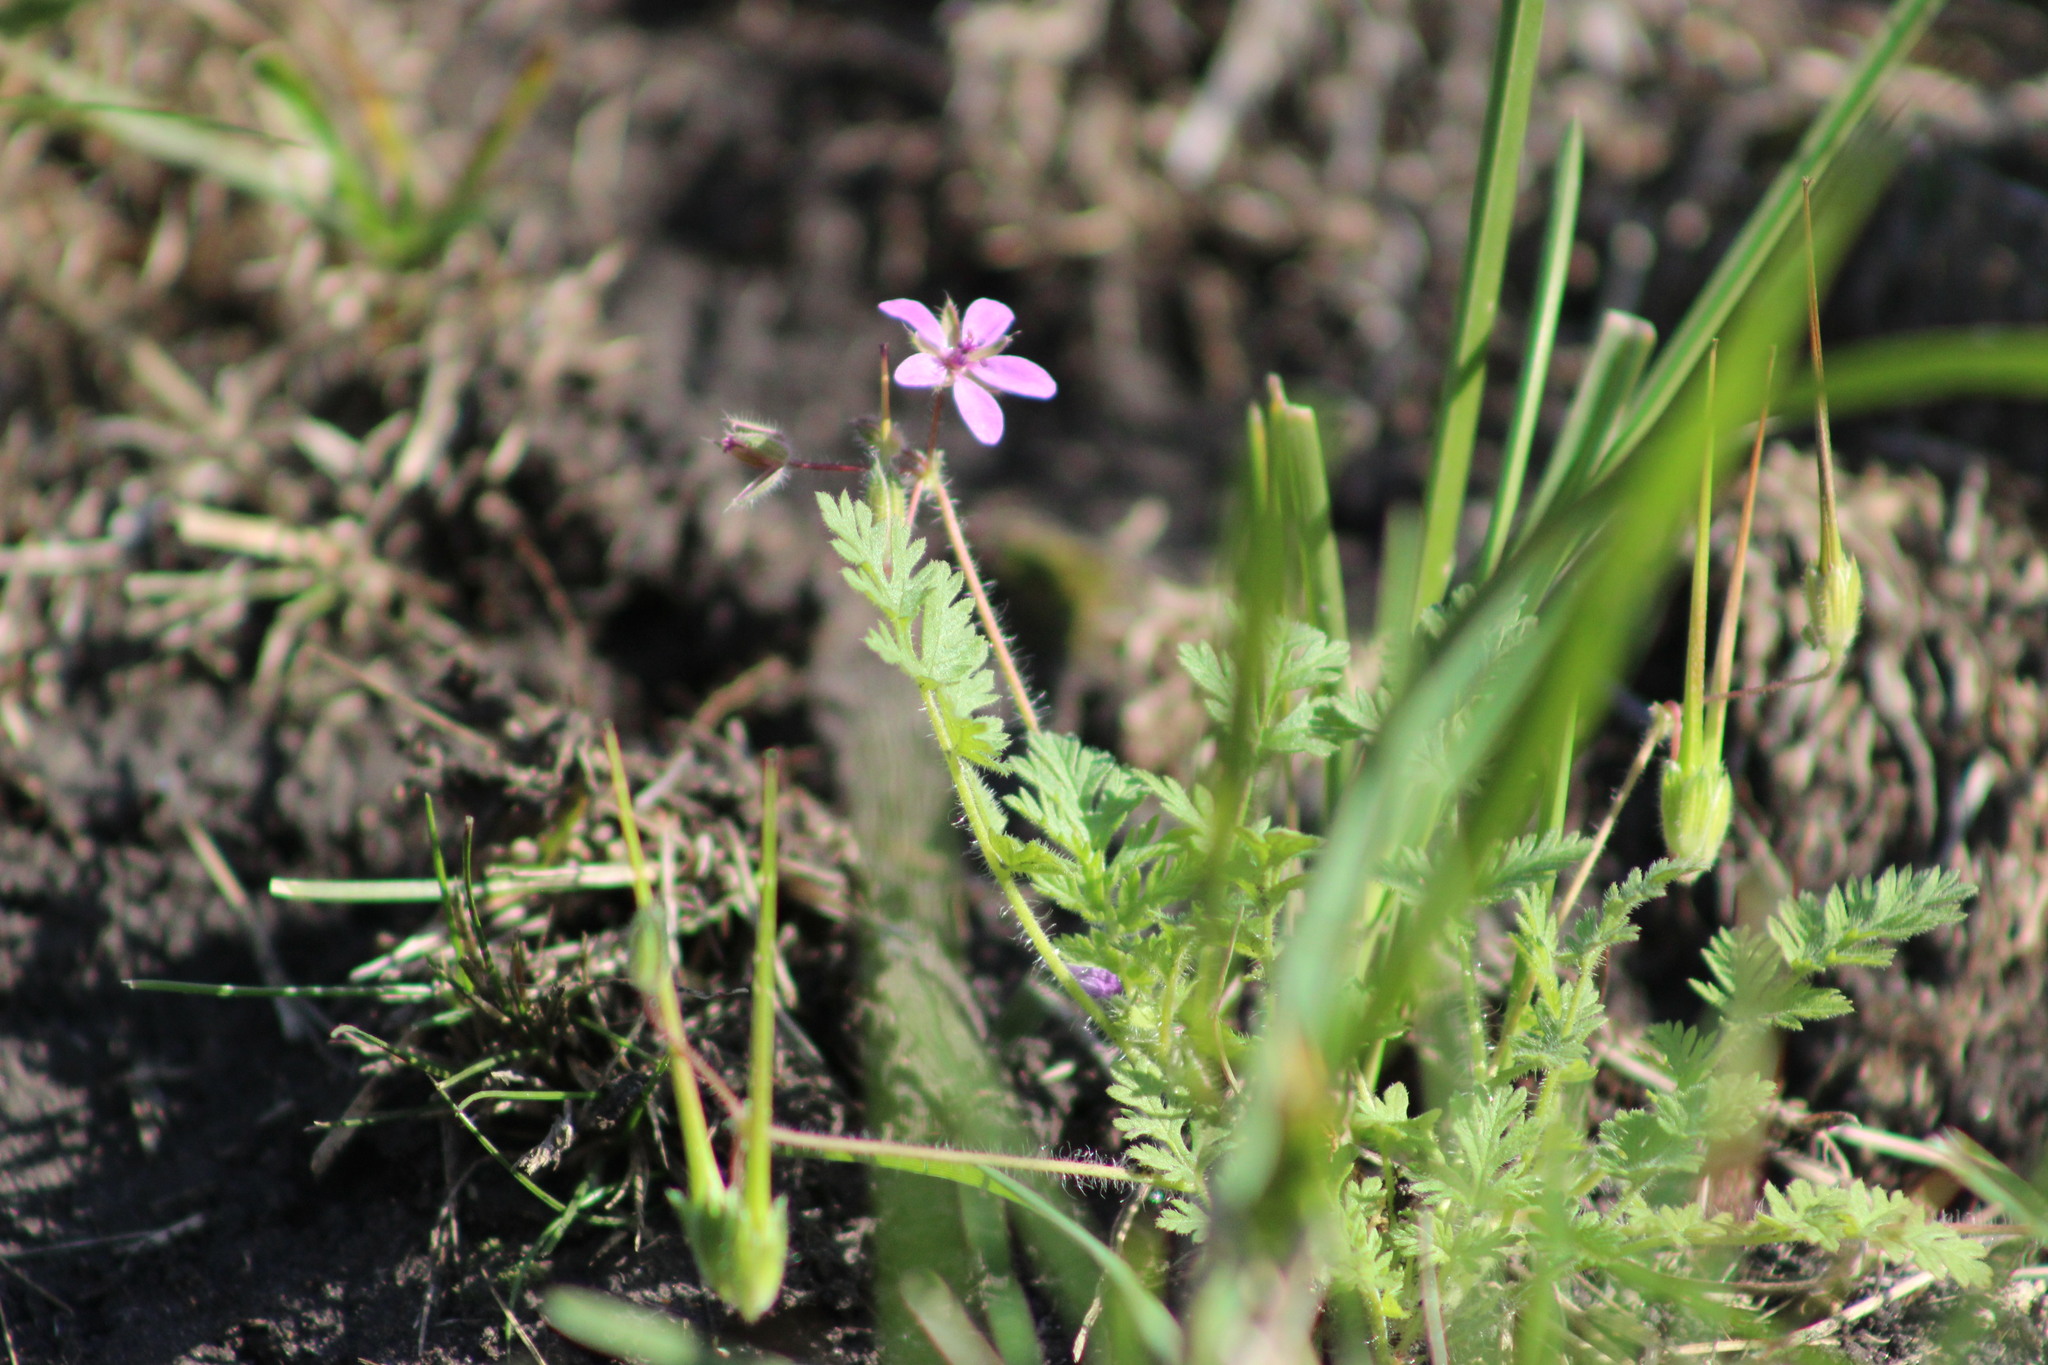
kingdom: Plantae
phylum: Tracheophyta
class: Magnoliopsida
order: Geraniales
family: Geraniaceae
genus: Erodium
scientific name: Erodium cicutarium
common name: Common stork's-bill
